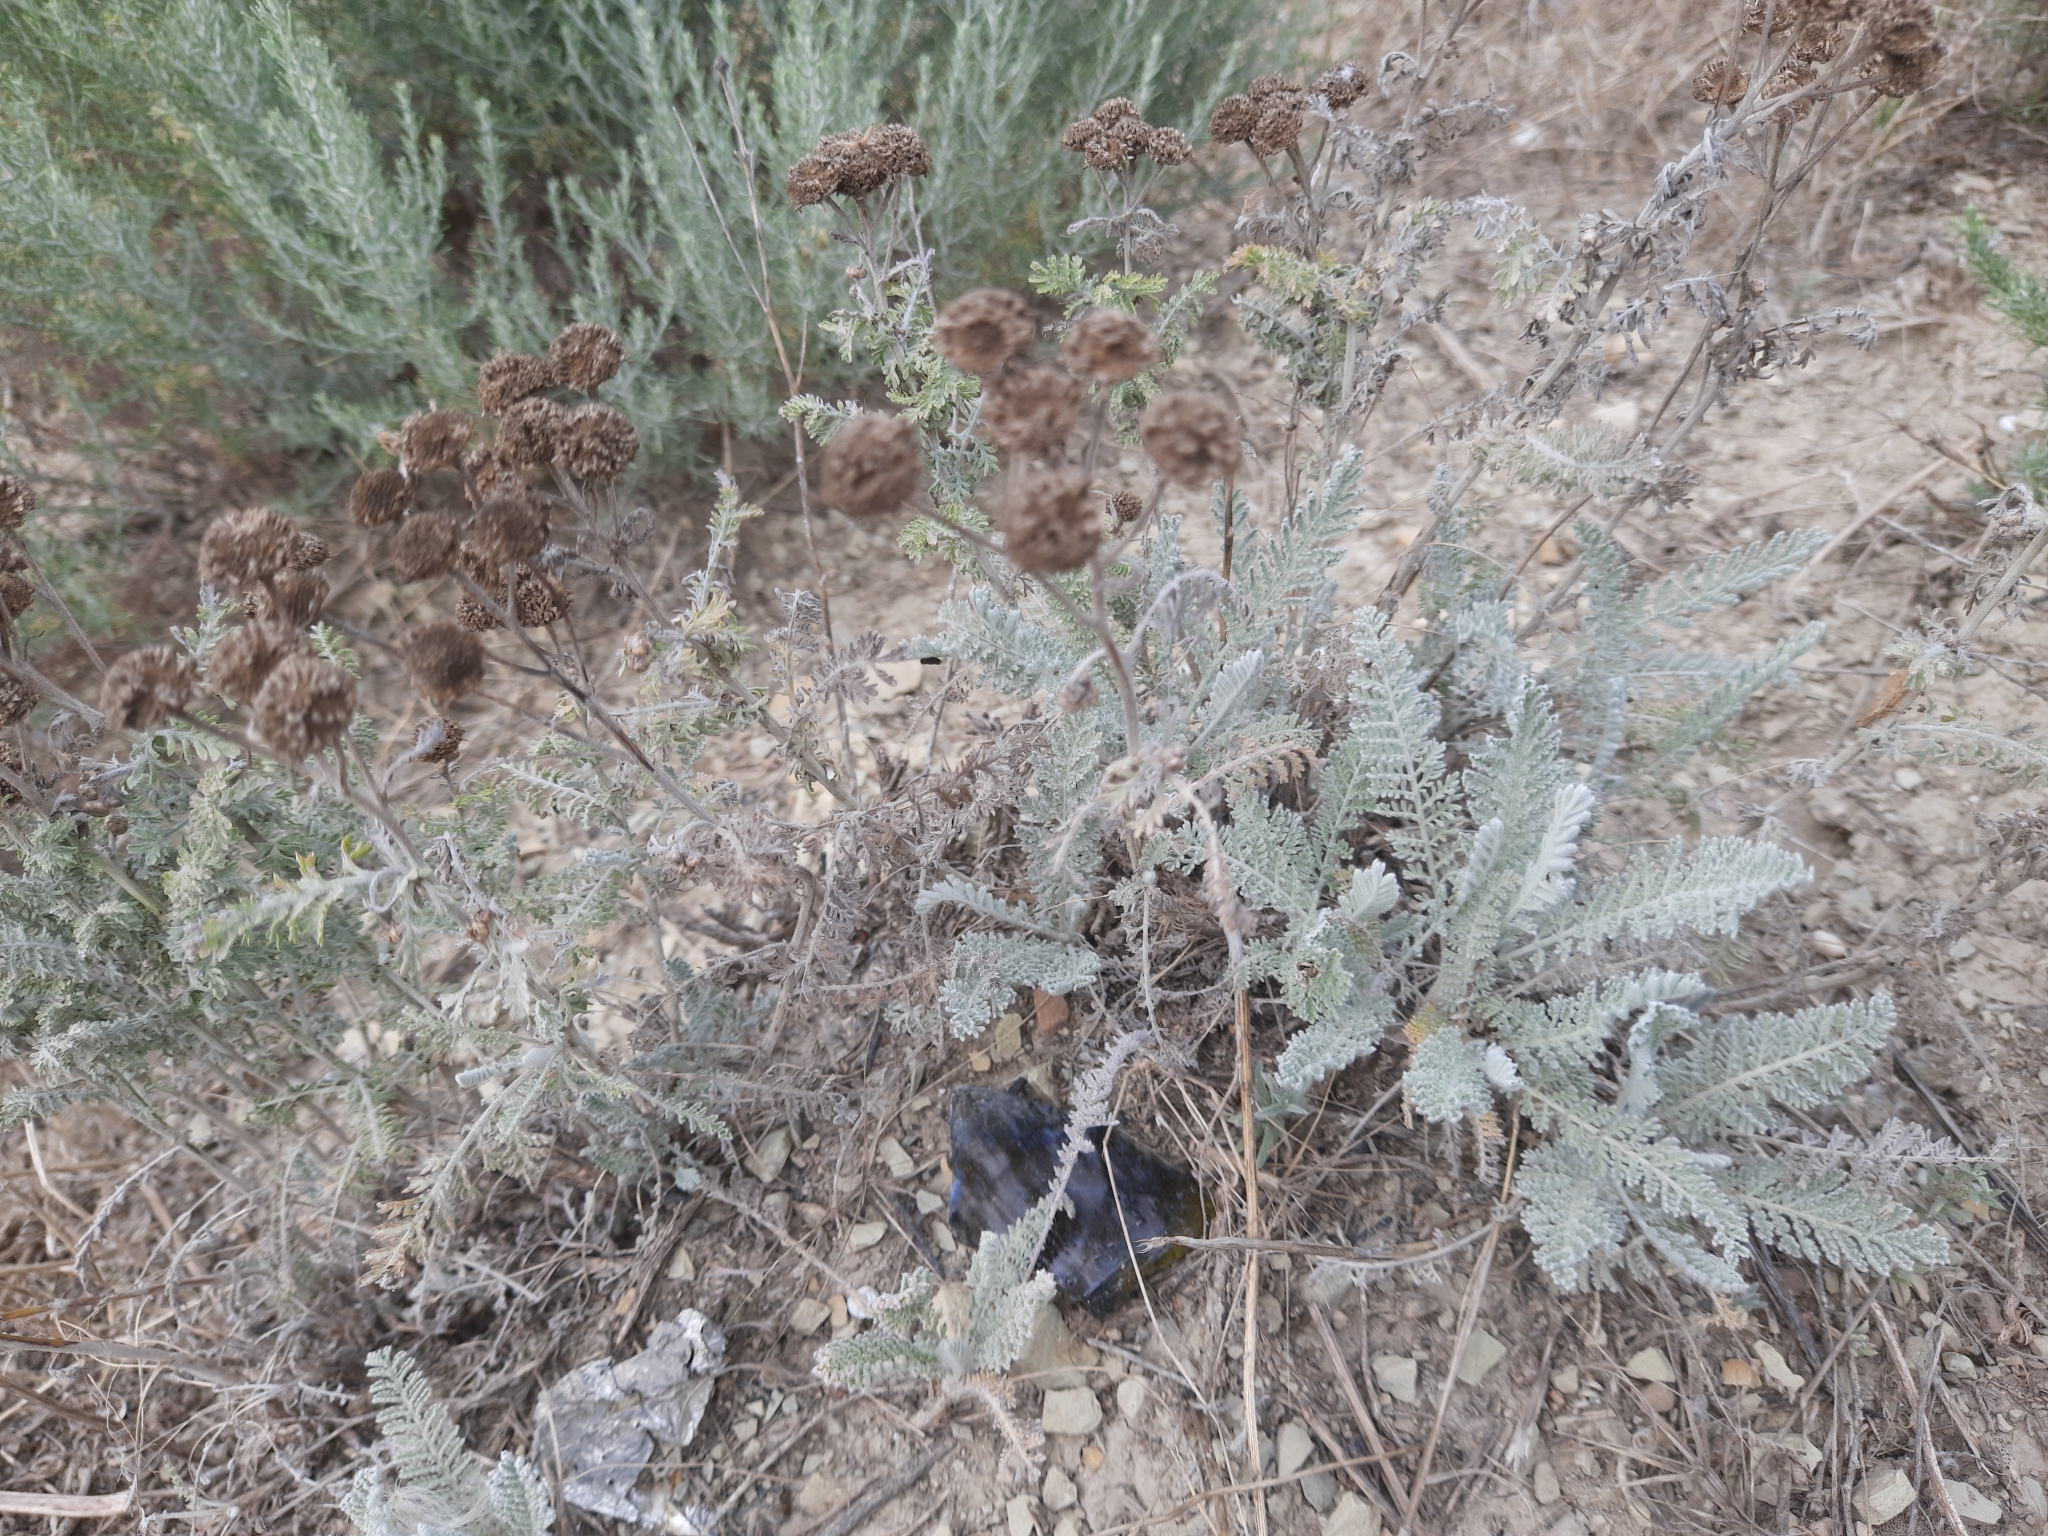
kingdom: Plantae
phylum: Tracheophyta
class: Magnoliopsida
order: Asterales
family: Asteraceae
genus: Tanacetum
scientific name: Tanacetum millefolium
